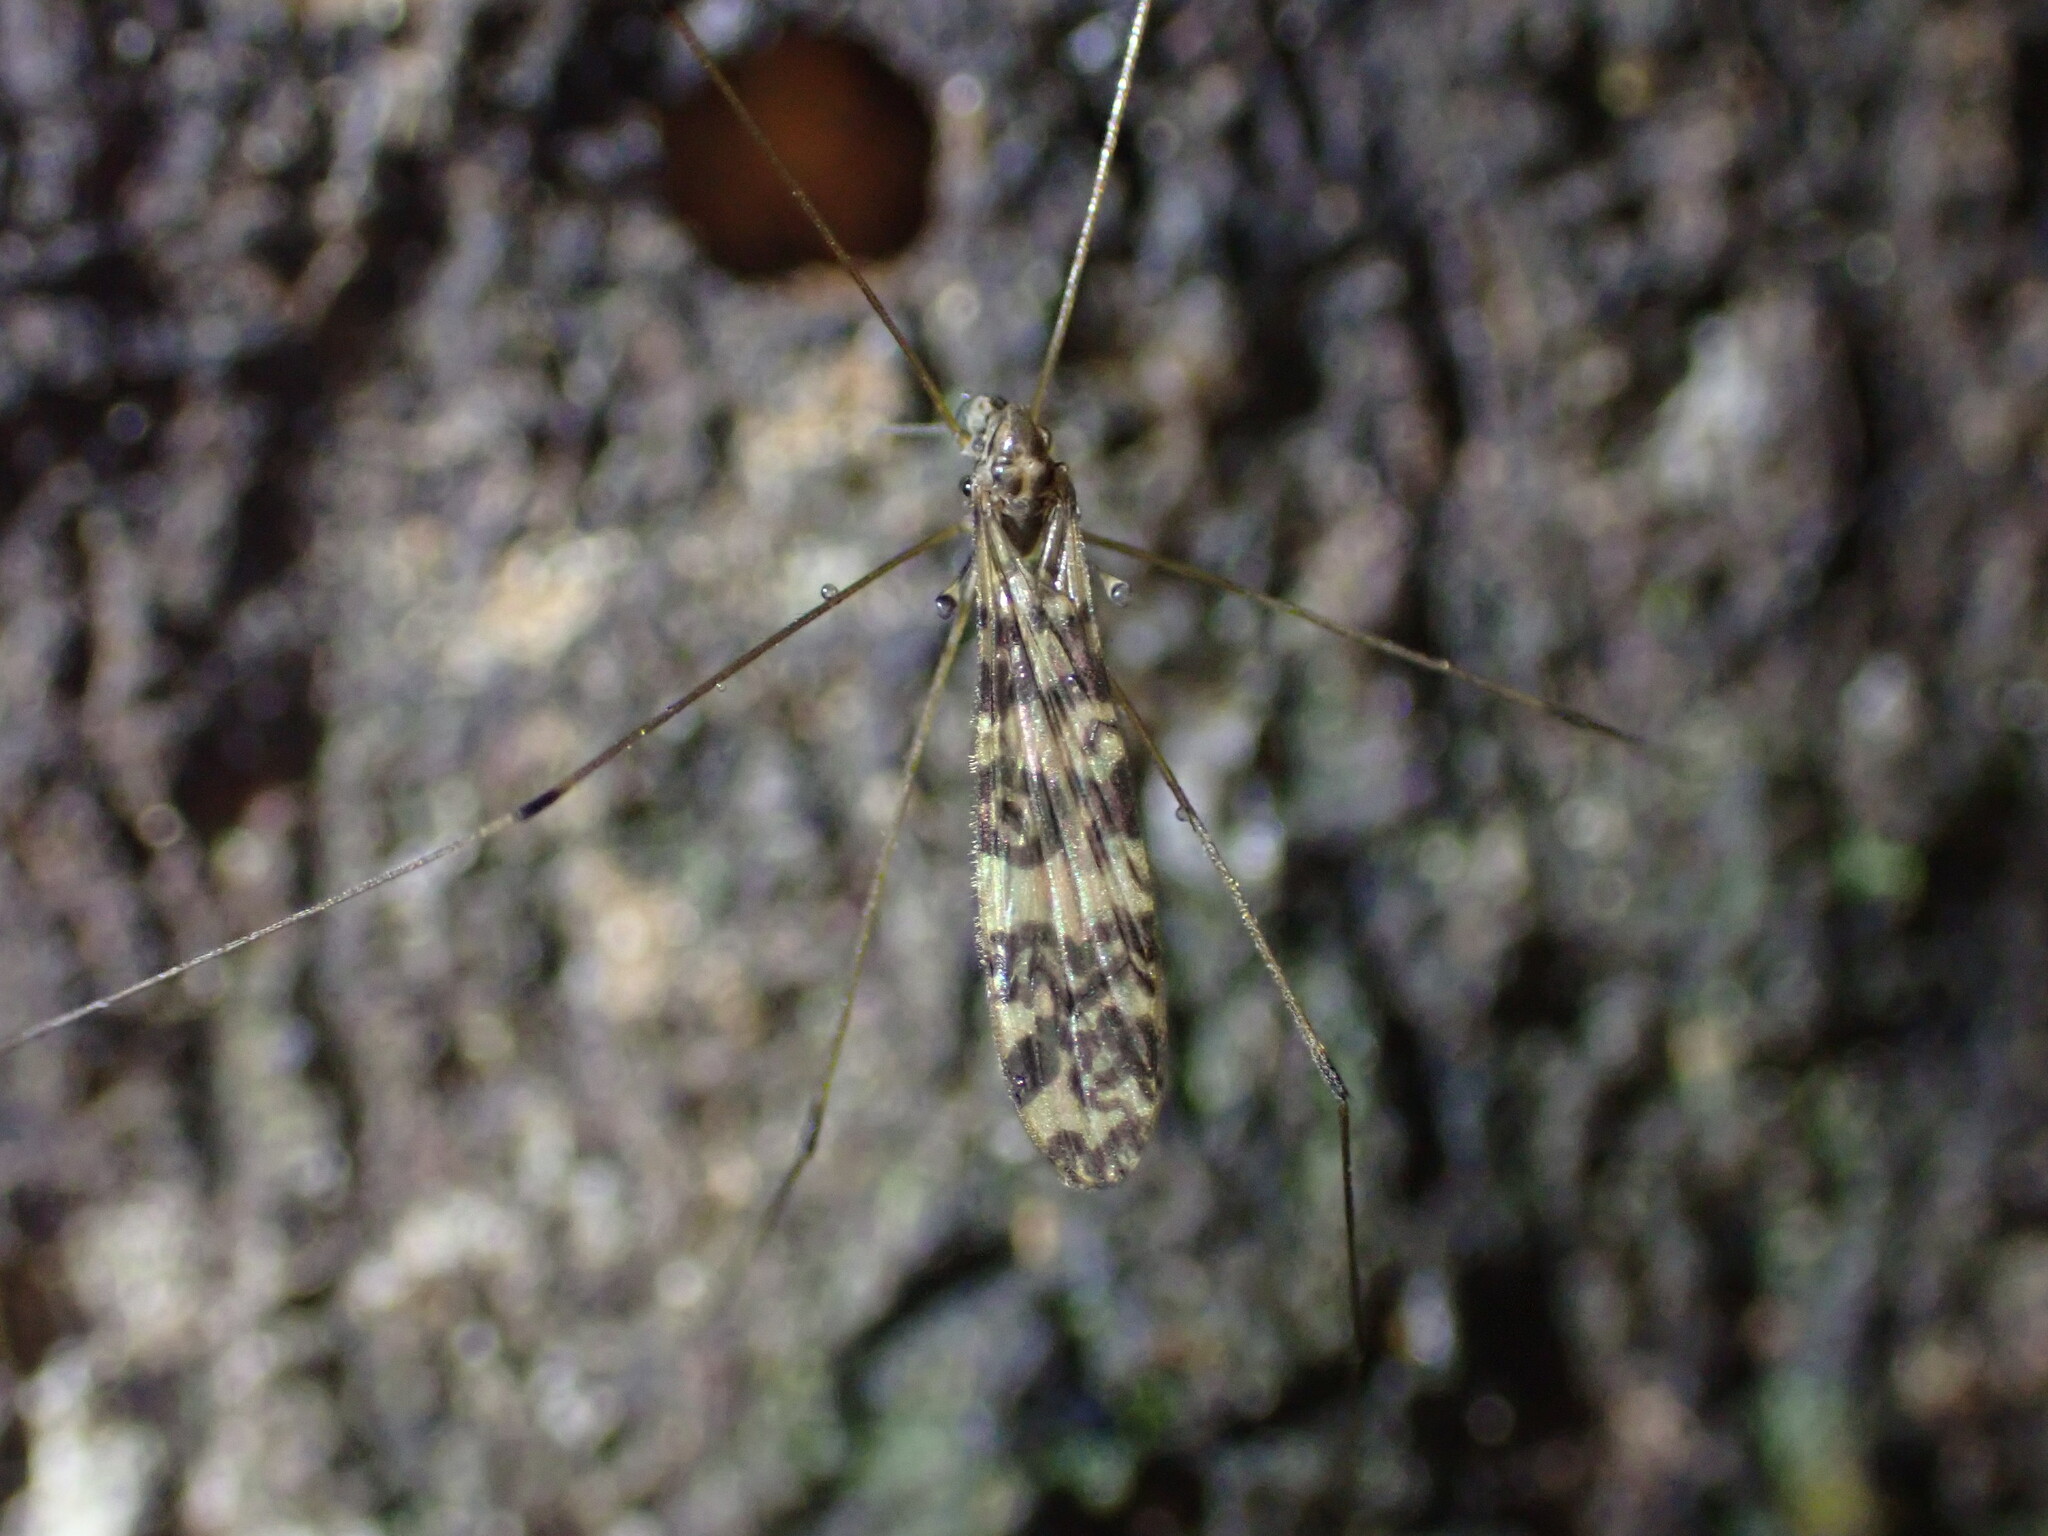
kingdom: Animalia
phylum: Arthropoda
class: Insecta
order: Diptera
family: Limoniidae
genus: Discobola
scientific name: Discobola gibberina
